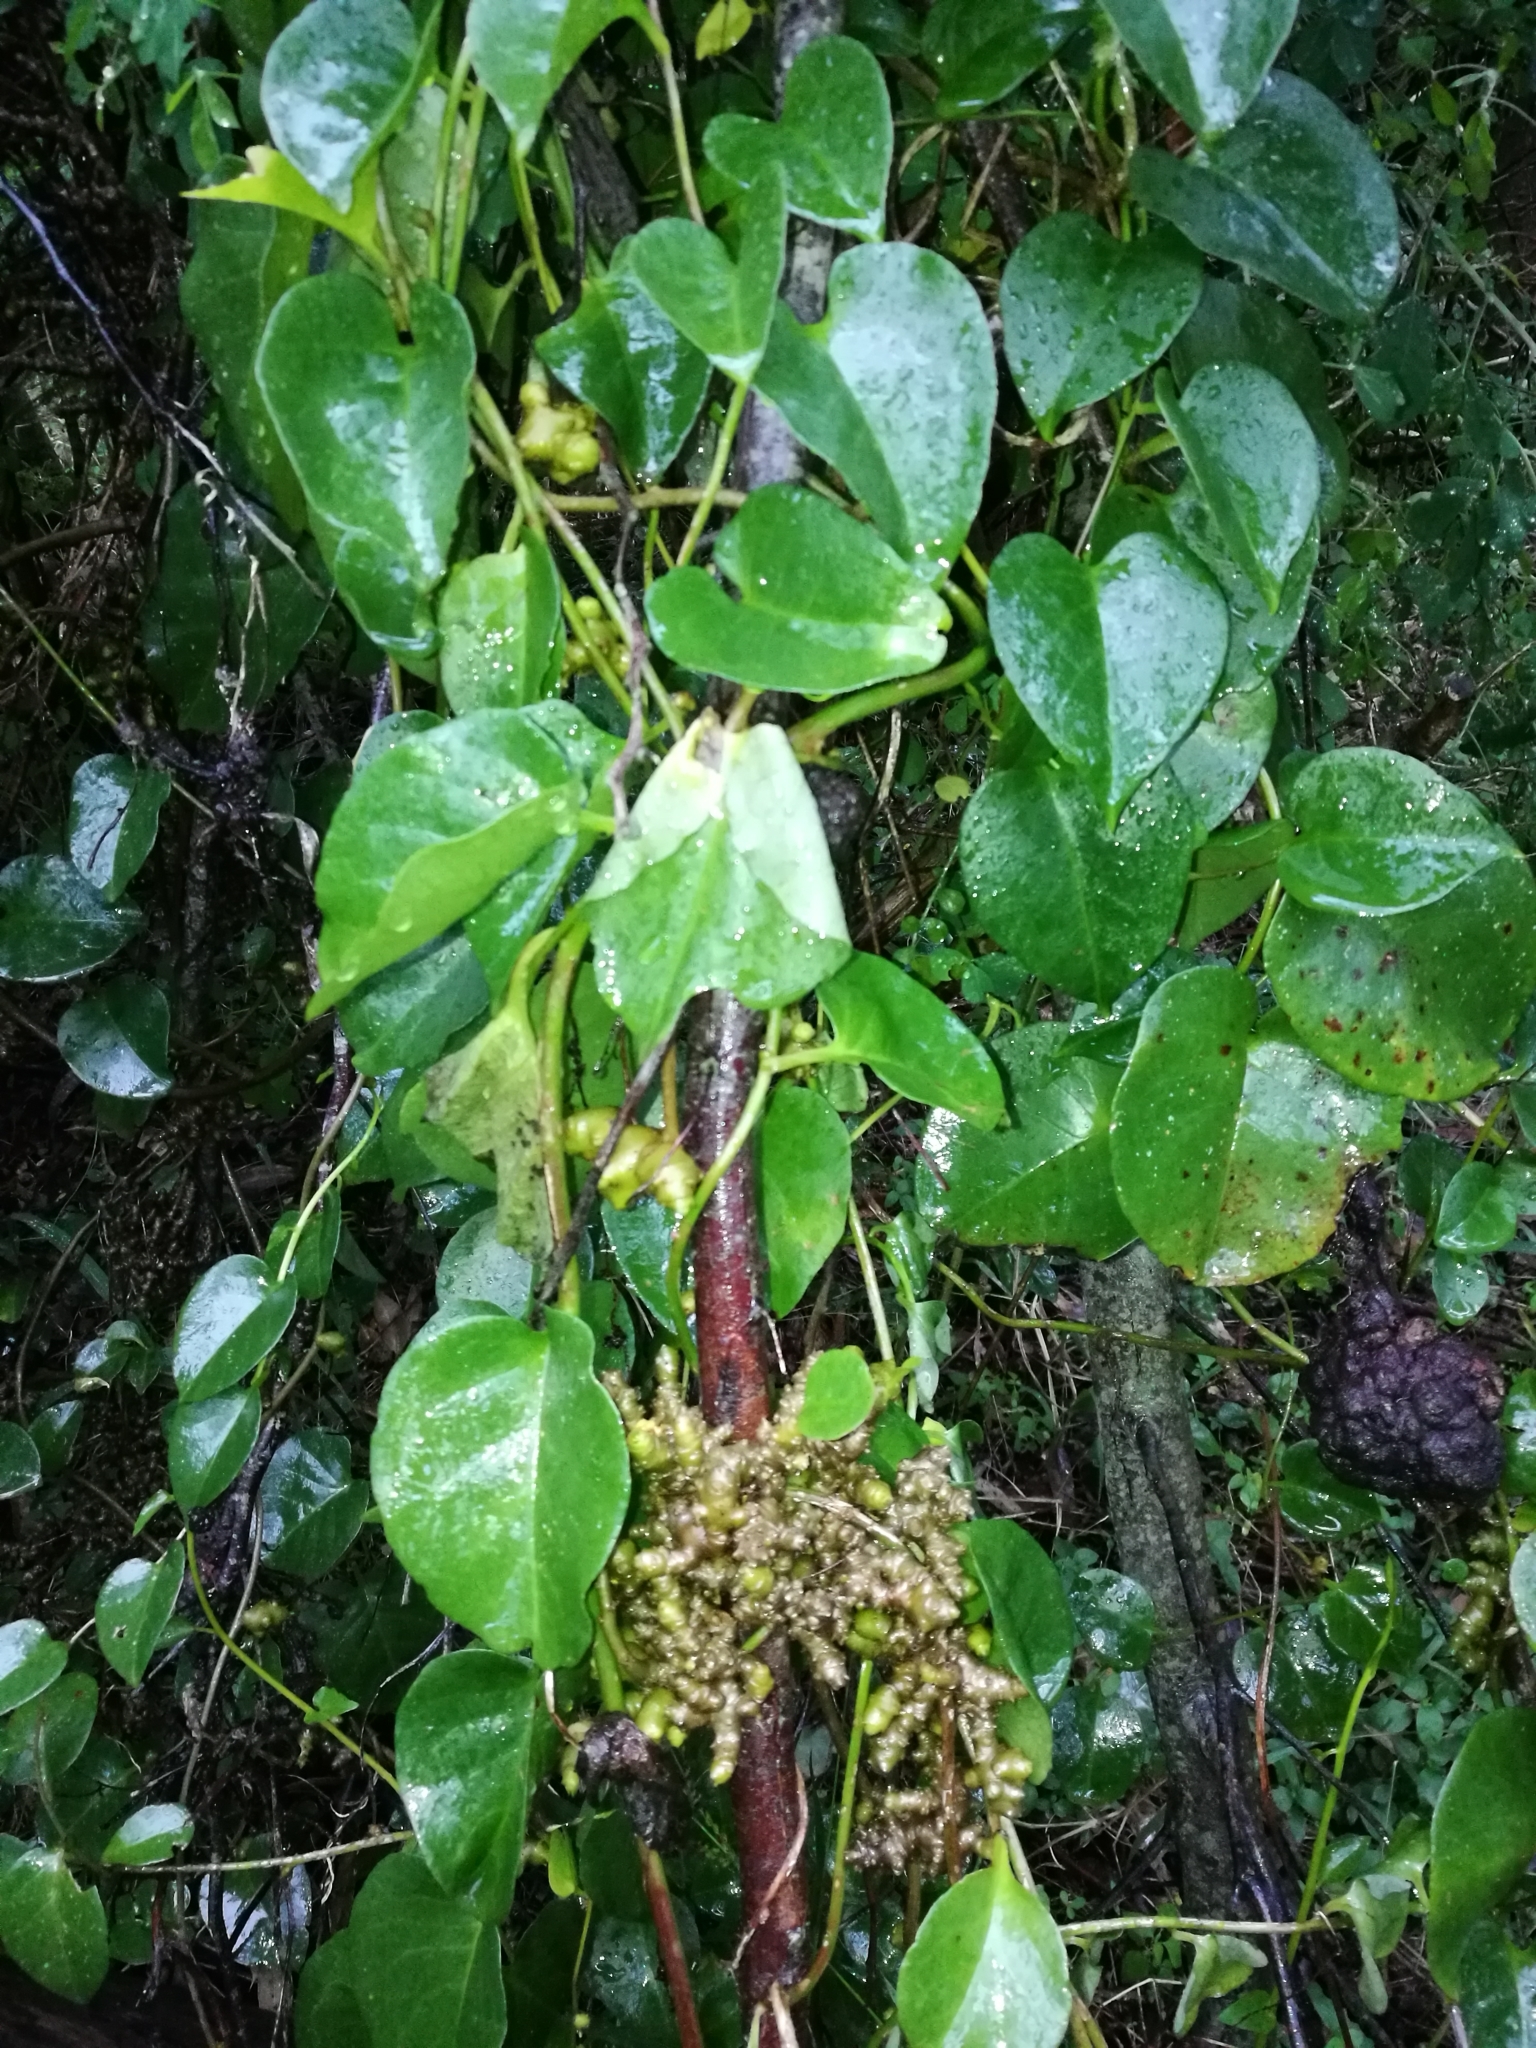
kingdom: Plantae
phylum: Tracheophyta
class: Magnoliopsida
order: Caryophyllales
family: Basellaceae
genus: Anredera
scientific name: Anredera cordifolia
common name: Heartleaf madeiravine
